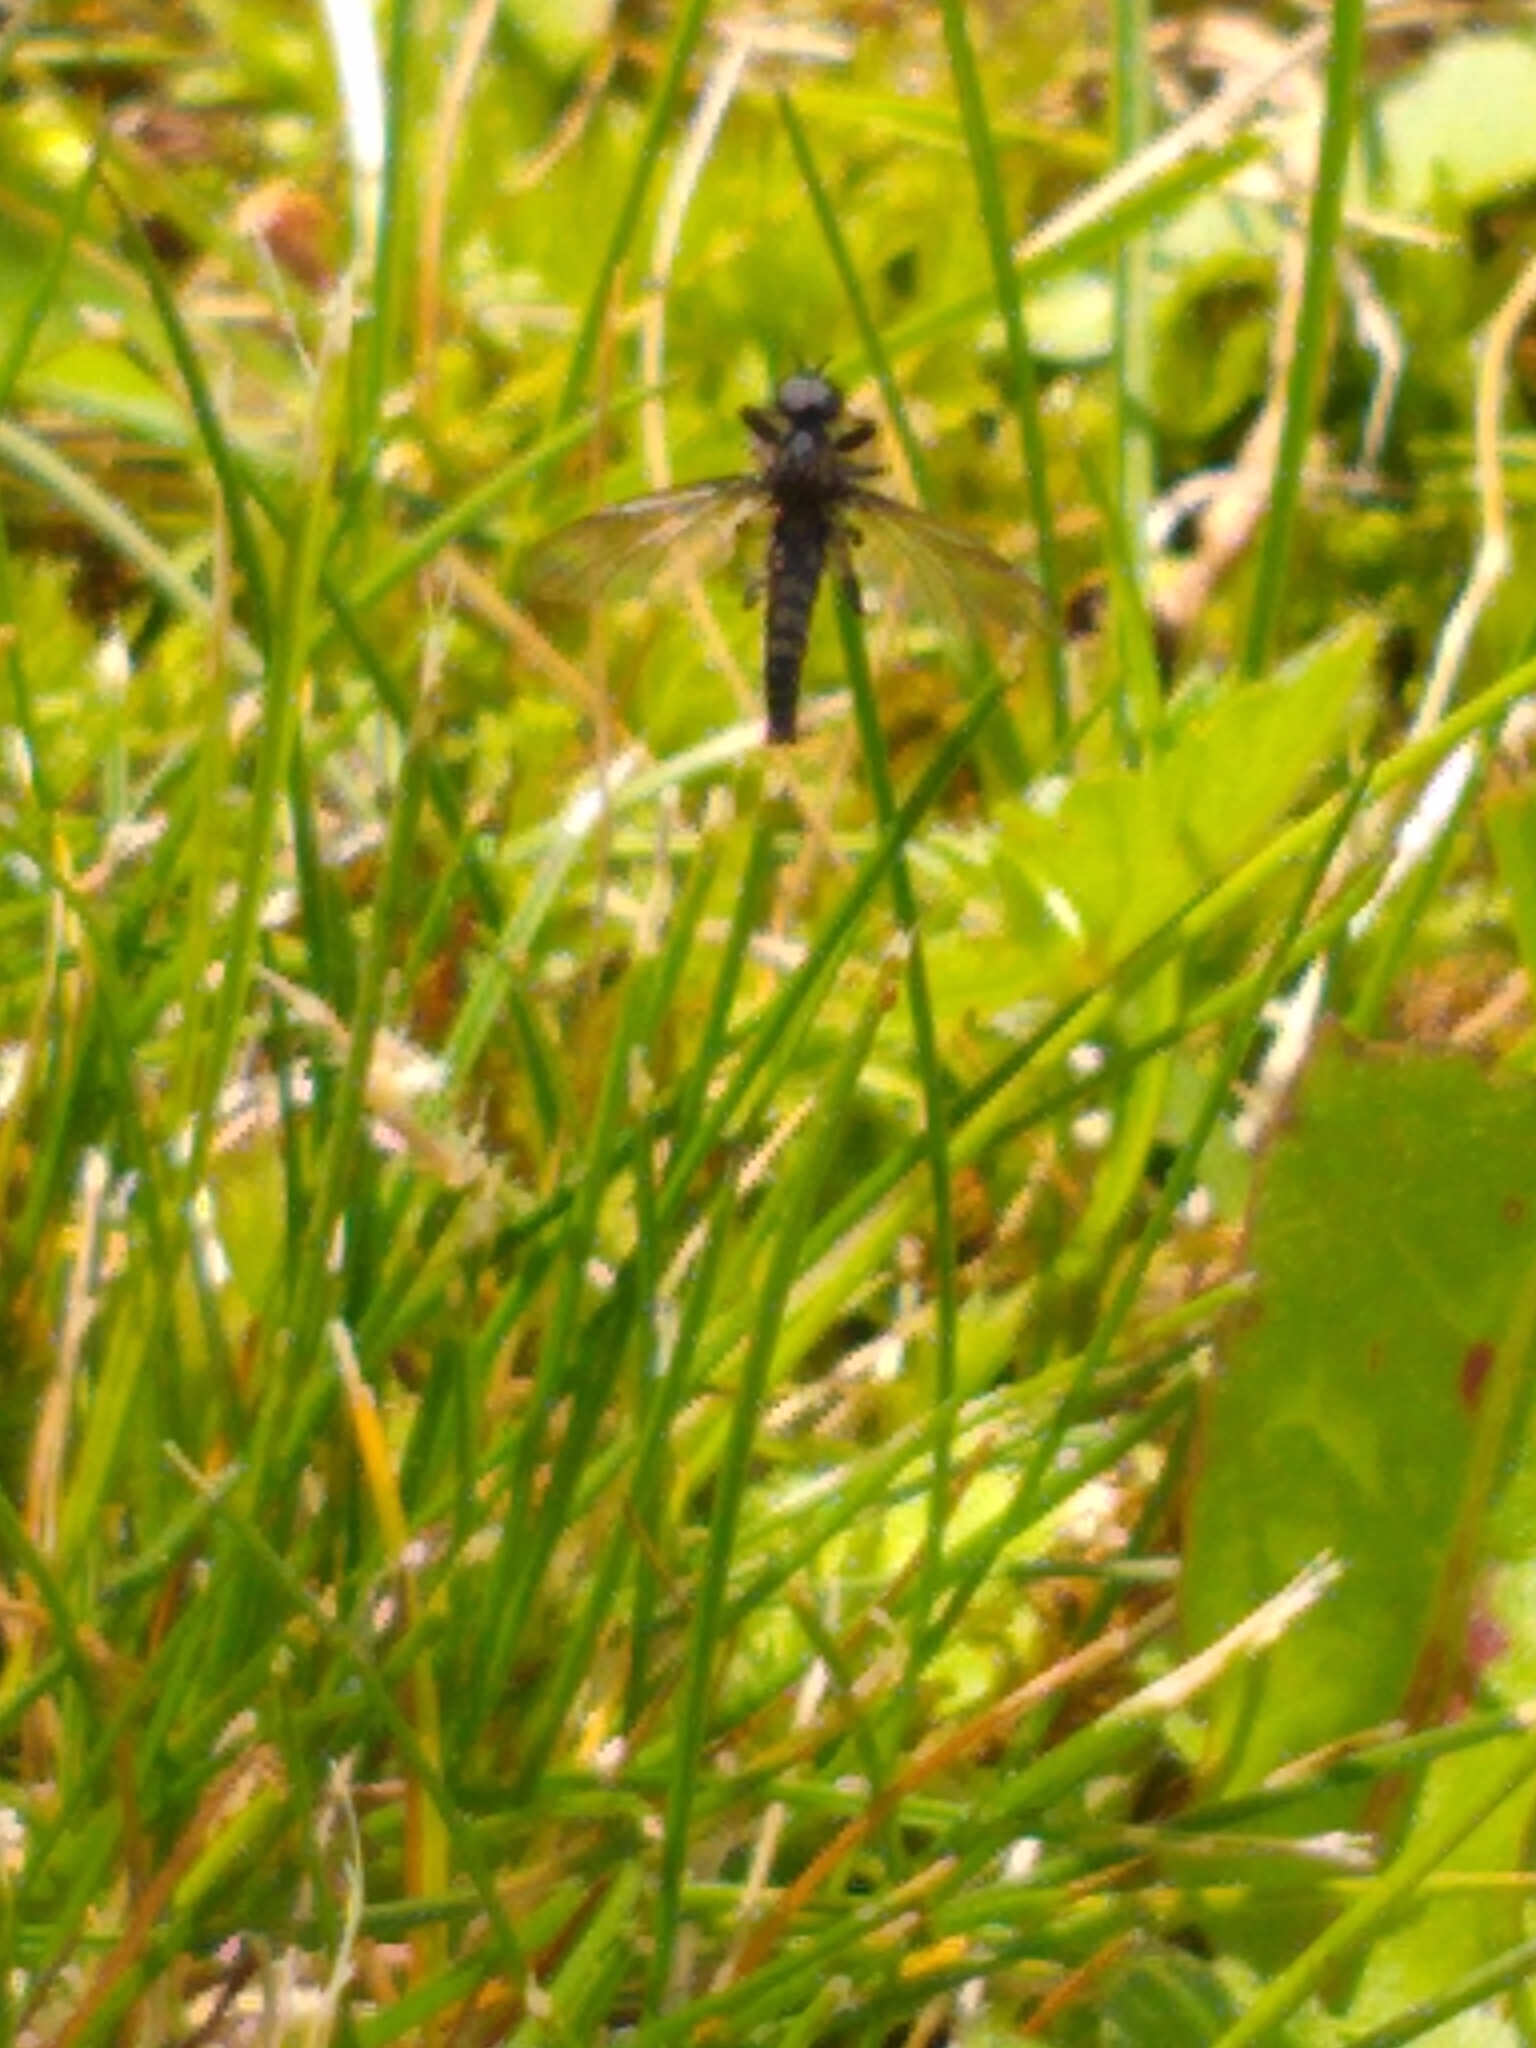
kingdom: Animalia
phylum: Arthropoda
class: Insecta
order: Diptera
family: Bibionidae
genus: Bibio
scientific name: Bibio lanigerus
